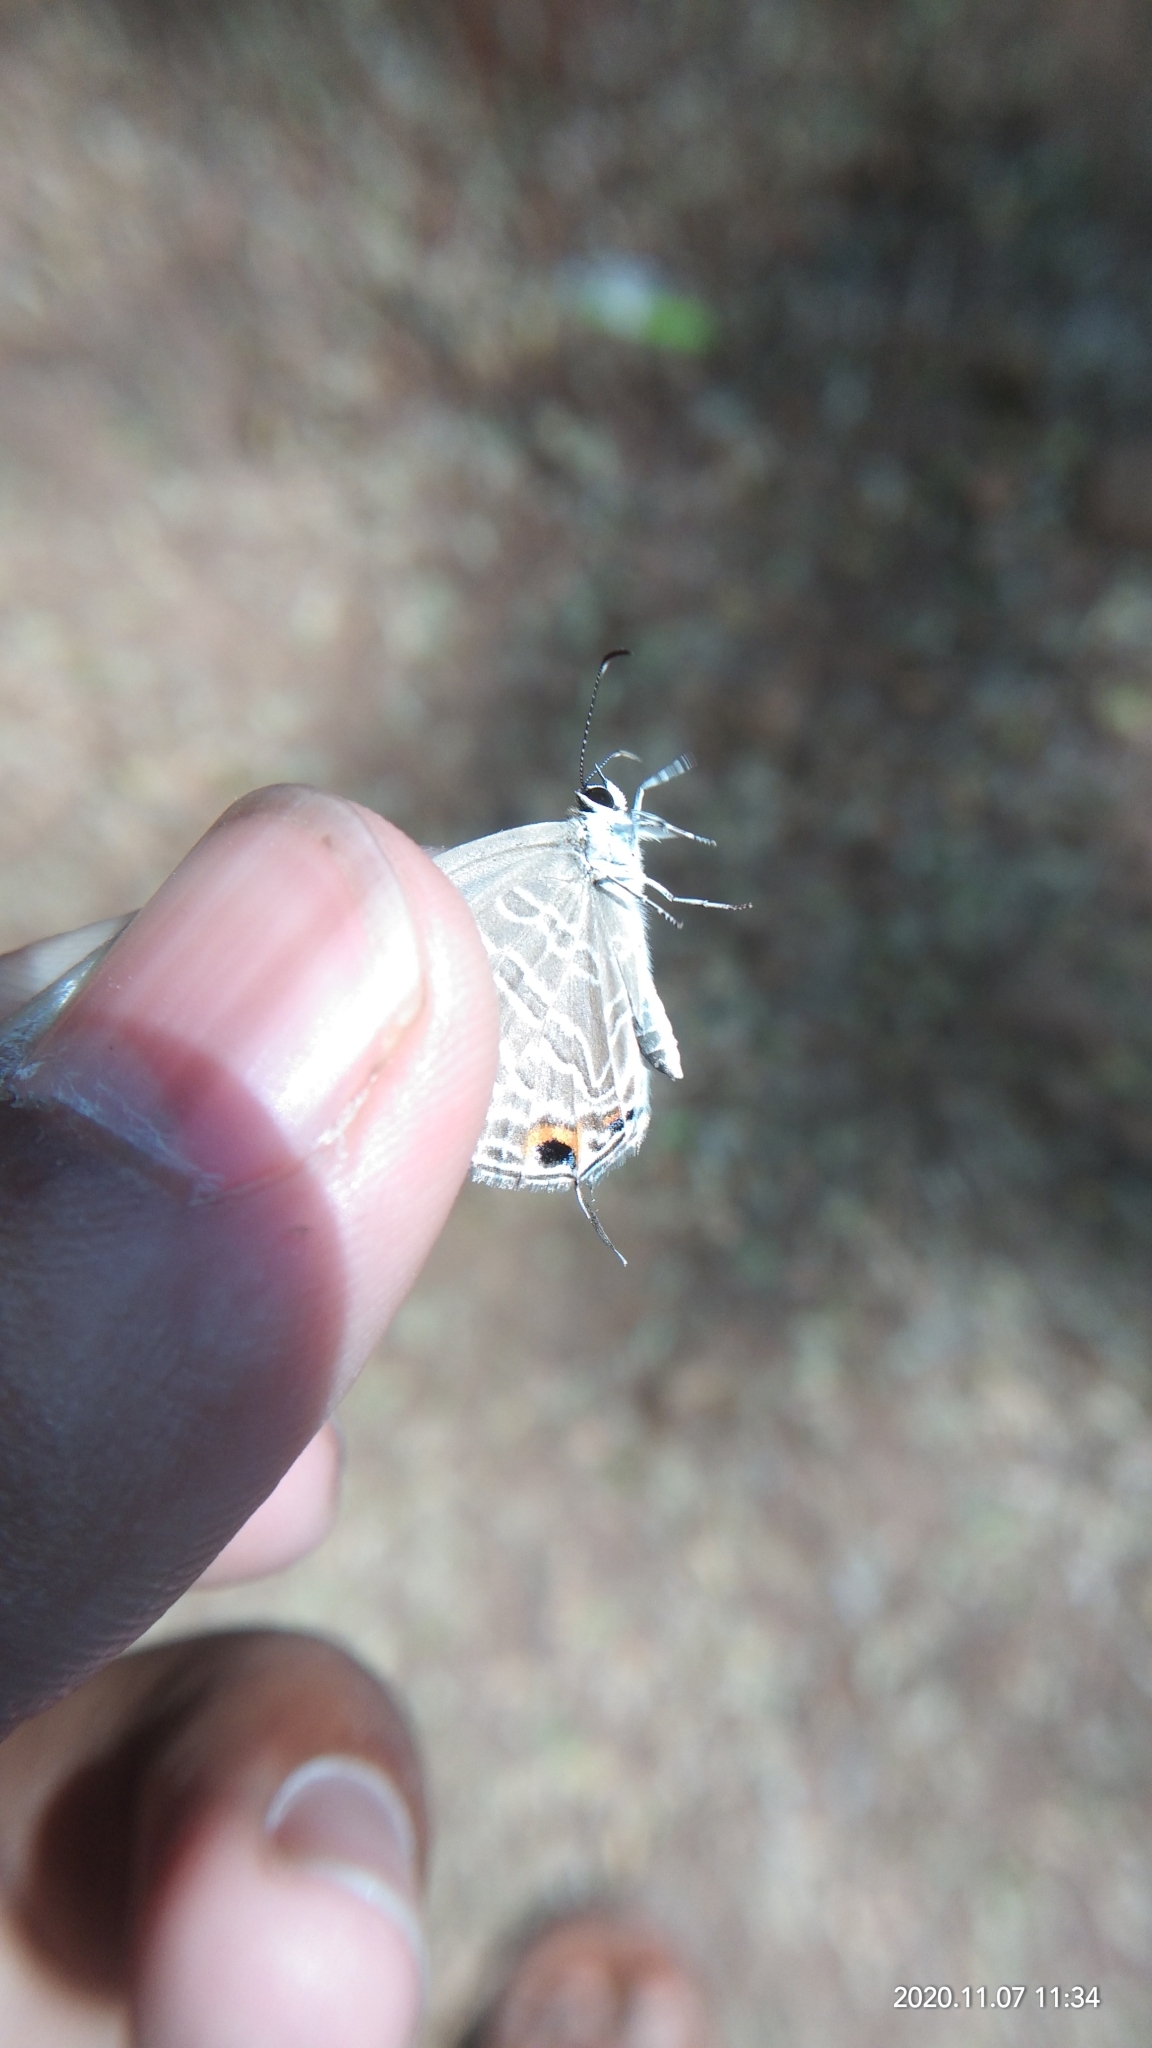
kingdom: Animalia
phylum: Arthropoda
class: Insecta
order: Lepidoptera
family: Lycaenidae
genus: Jamides
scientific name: Jamides celeno
